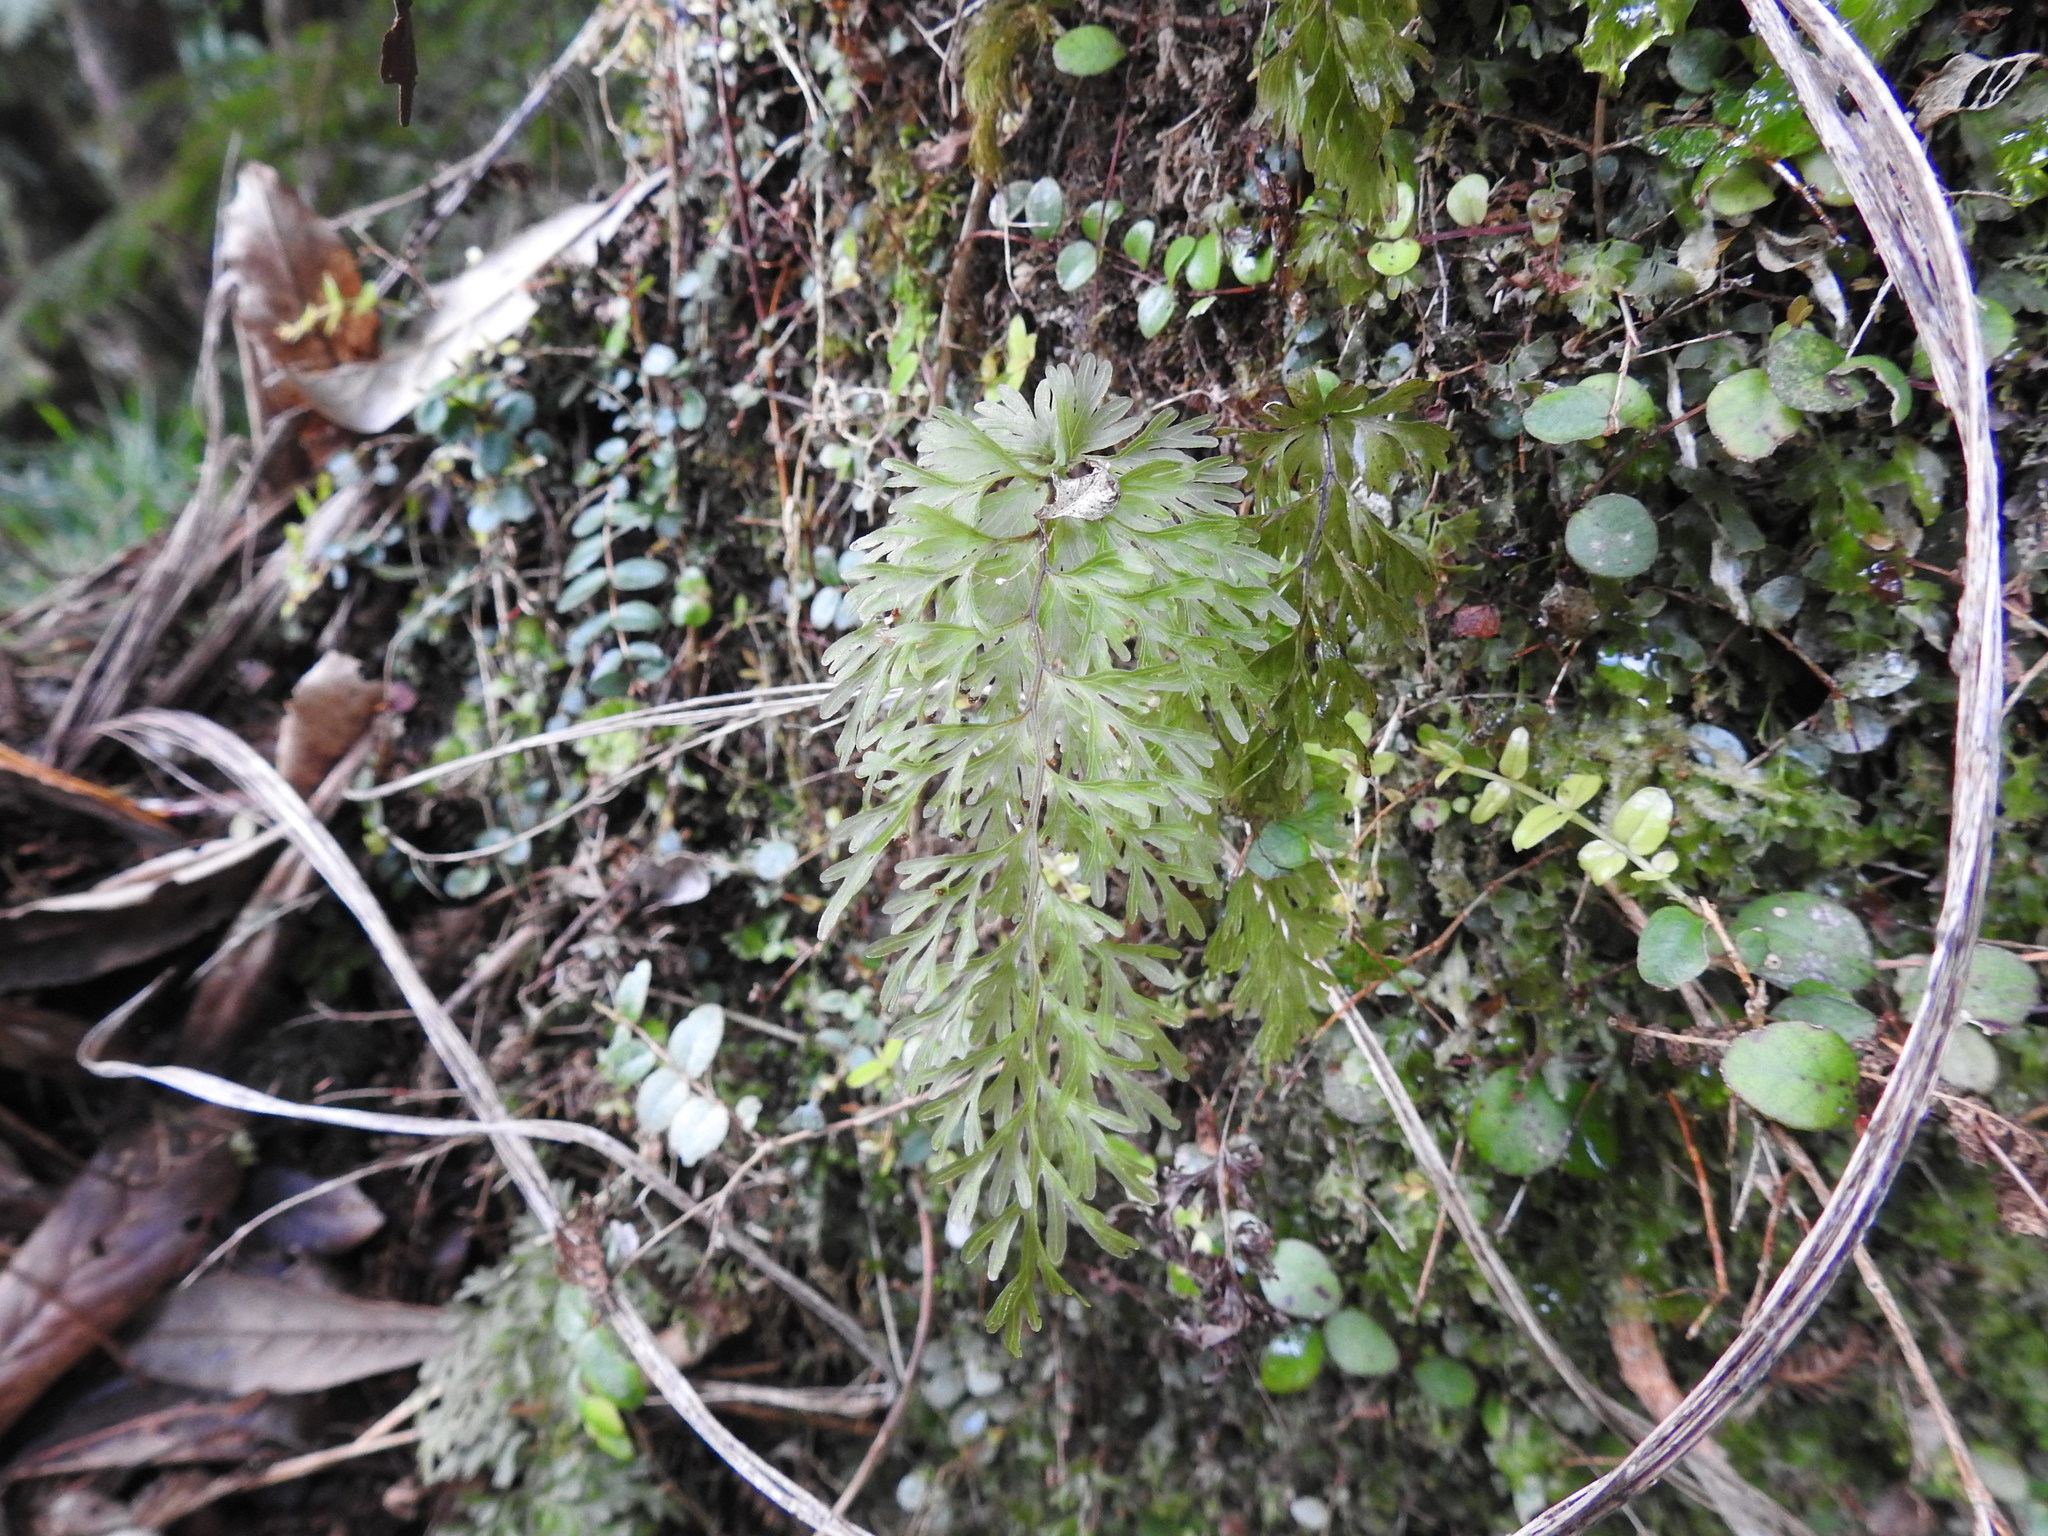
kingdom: Plantae
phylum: Tracheophyta
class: Polypodiopsida
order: Hymenophyllales
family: Hymenophyllaceae
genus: Hymenophyllum
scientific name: Hymenophyllum demissum
